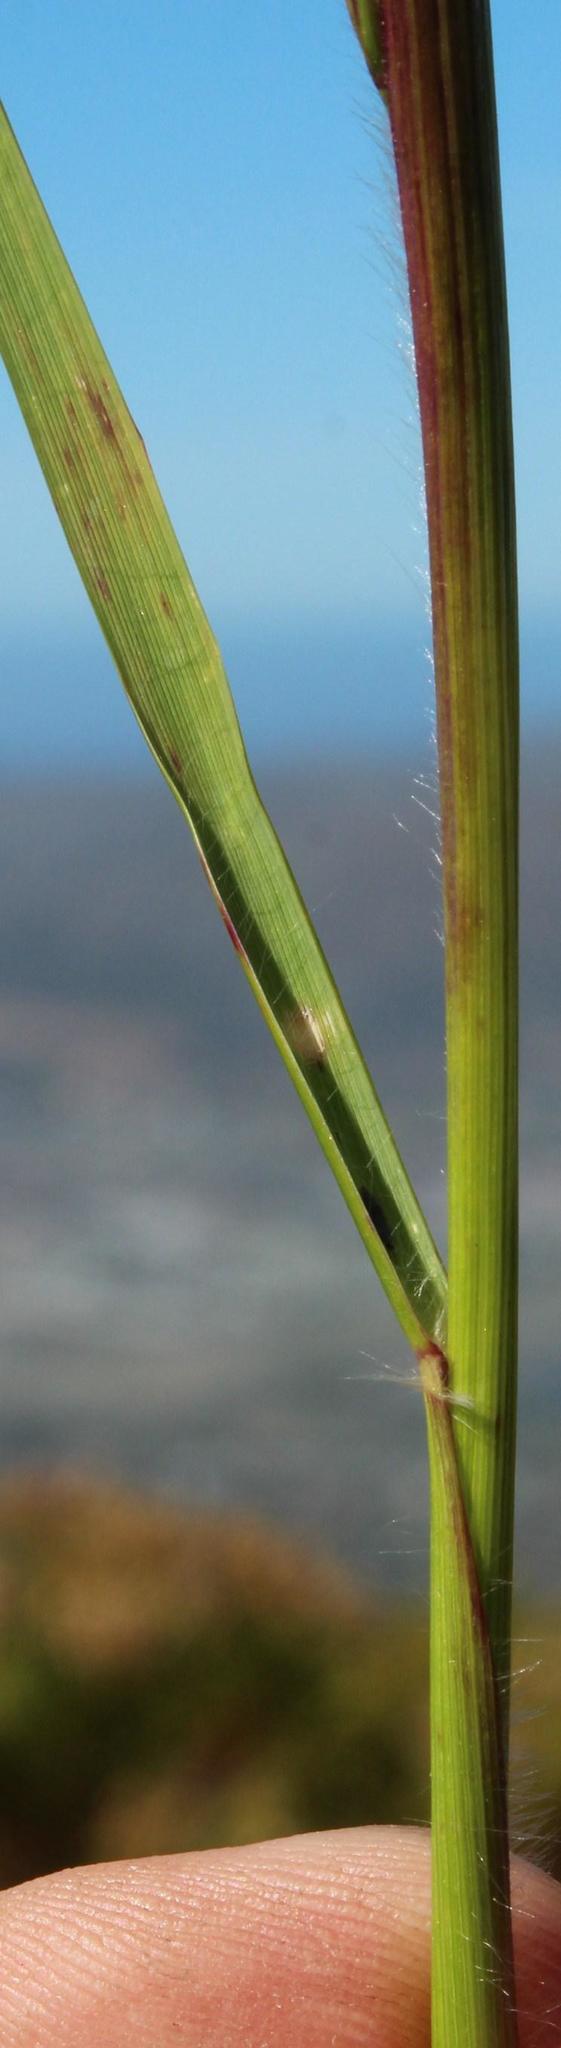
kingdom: Plantae
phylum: Tracheophyta
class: Liliopsida
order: Poales
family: Poaceae
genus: Pentameris
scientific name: Pentameris curvifolia
